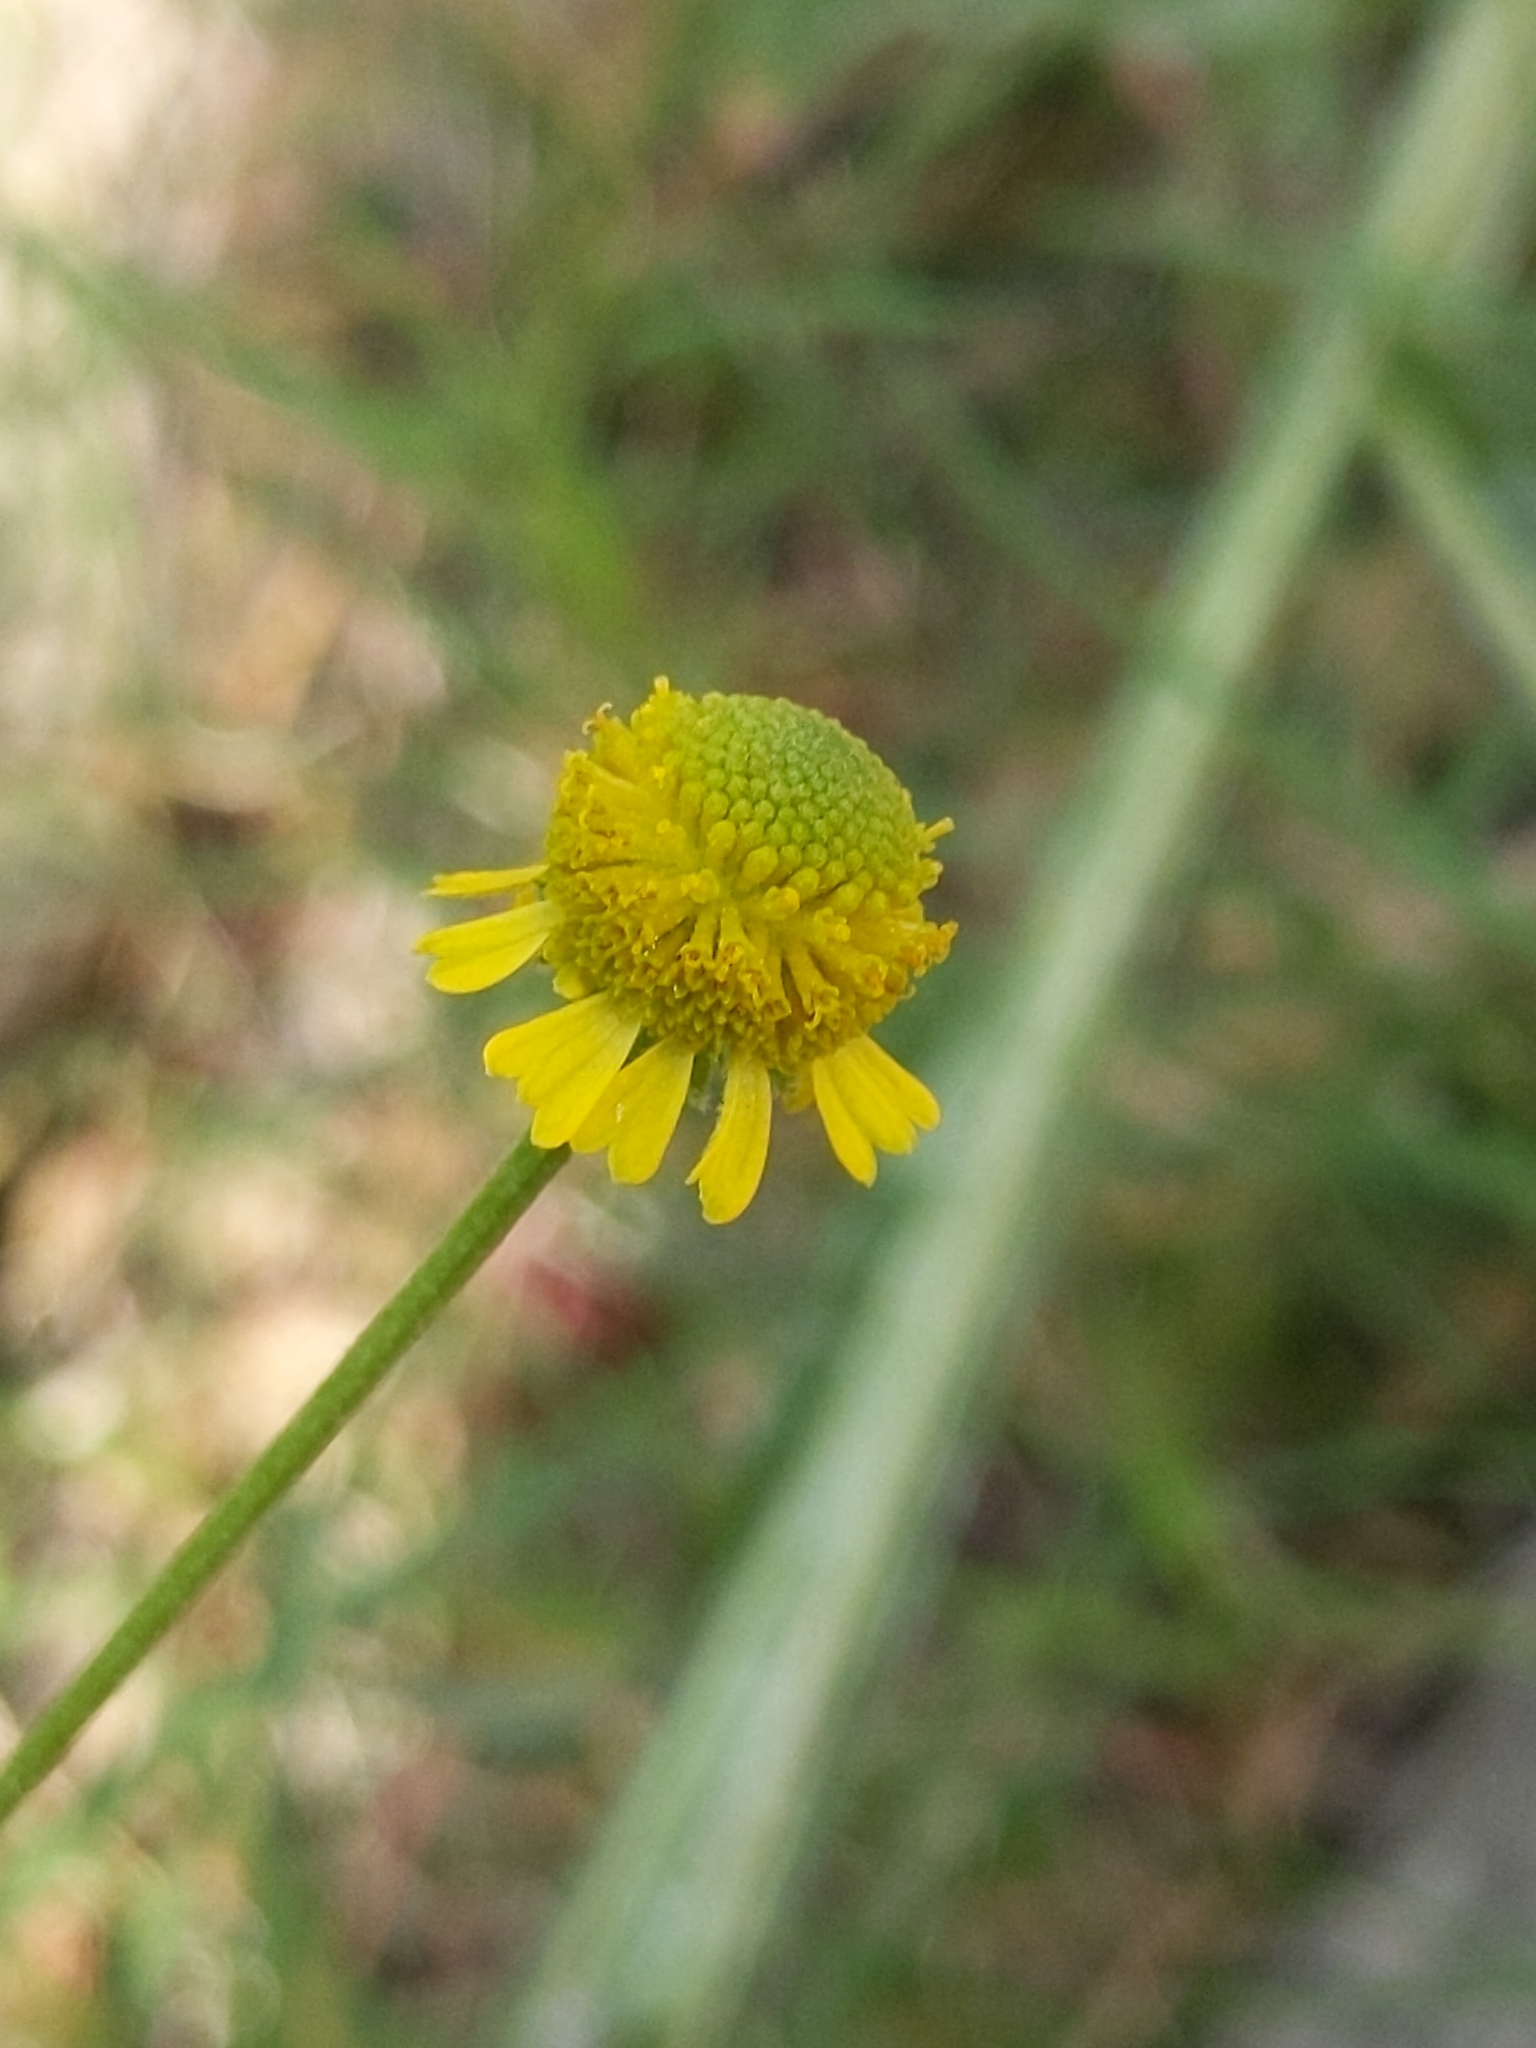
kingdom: Plantae
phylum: Tracheophyta
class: Magnoliopsida
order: Asterales
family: Asteraceae
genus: Helenium
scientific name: Helenium puberulum
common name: Sneezewort
